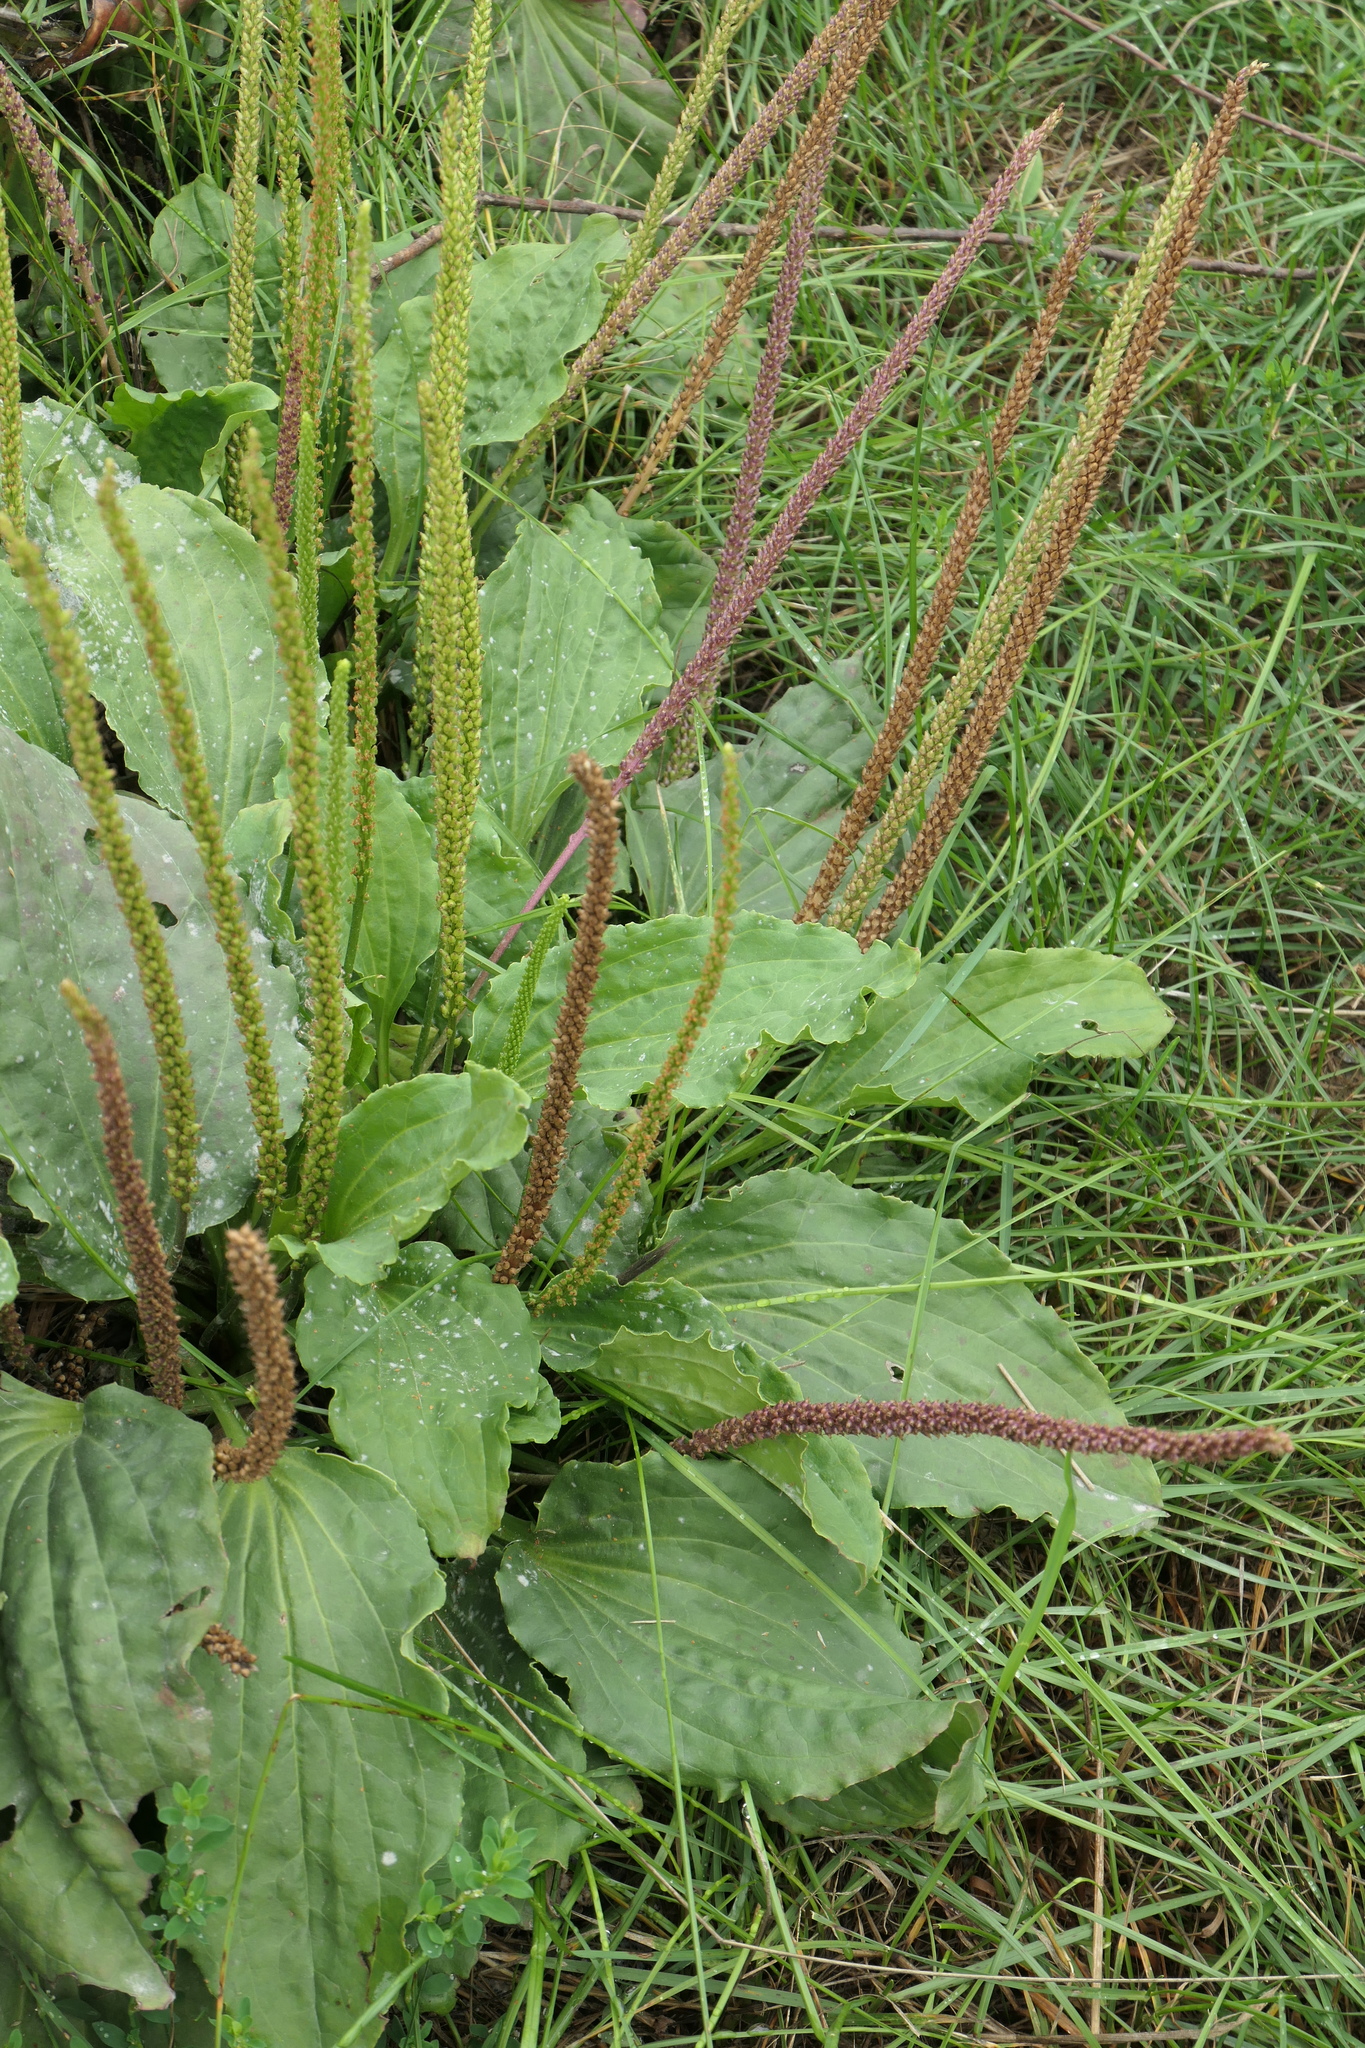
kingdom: Plantae
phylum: Tracheophyta
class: Magnoliopsida
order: Lamiales
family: Plantaginaceae
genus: Plantago
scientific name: Plantago major
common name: Common plantain
